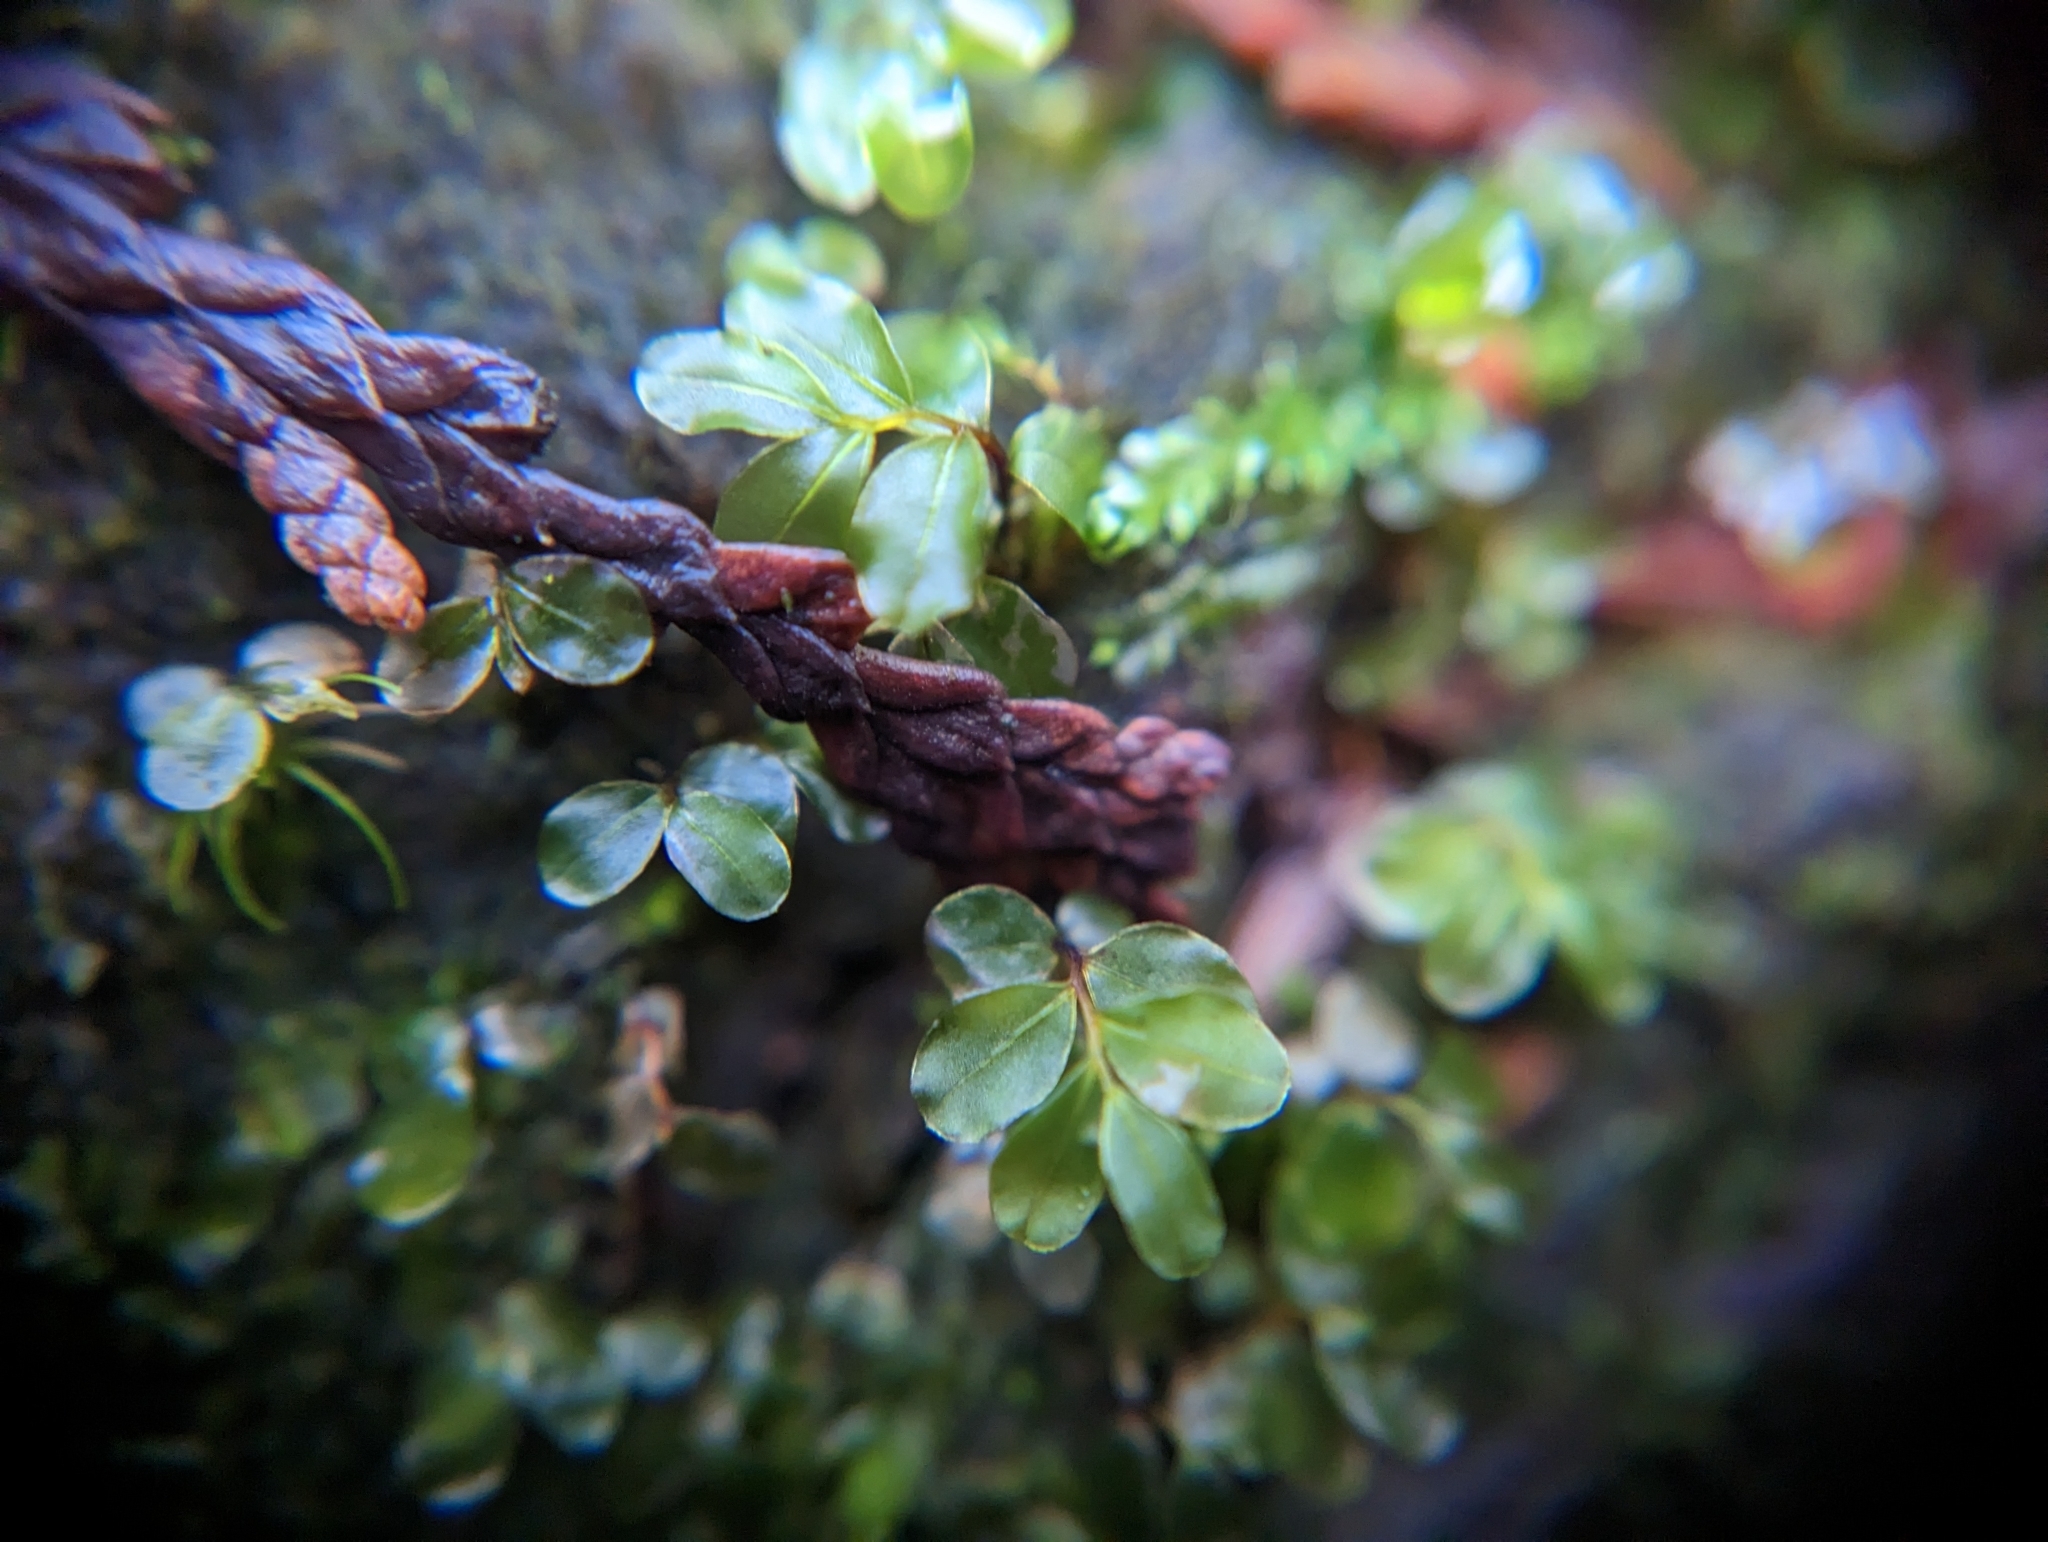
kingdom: Plantae
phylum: Bryophyta
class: Bryopsida
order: Bryales
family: Mniaceae
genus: Rhizomnium
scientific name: Rhizomnium glabrescens
